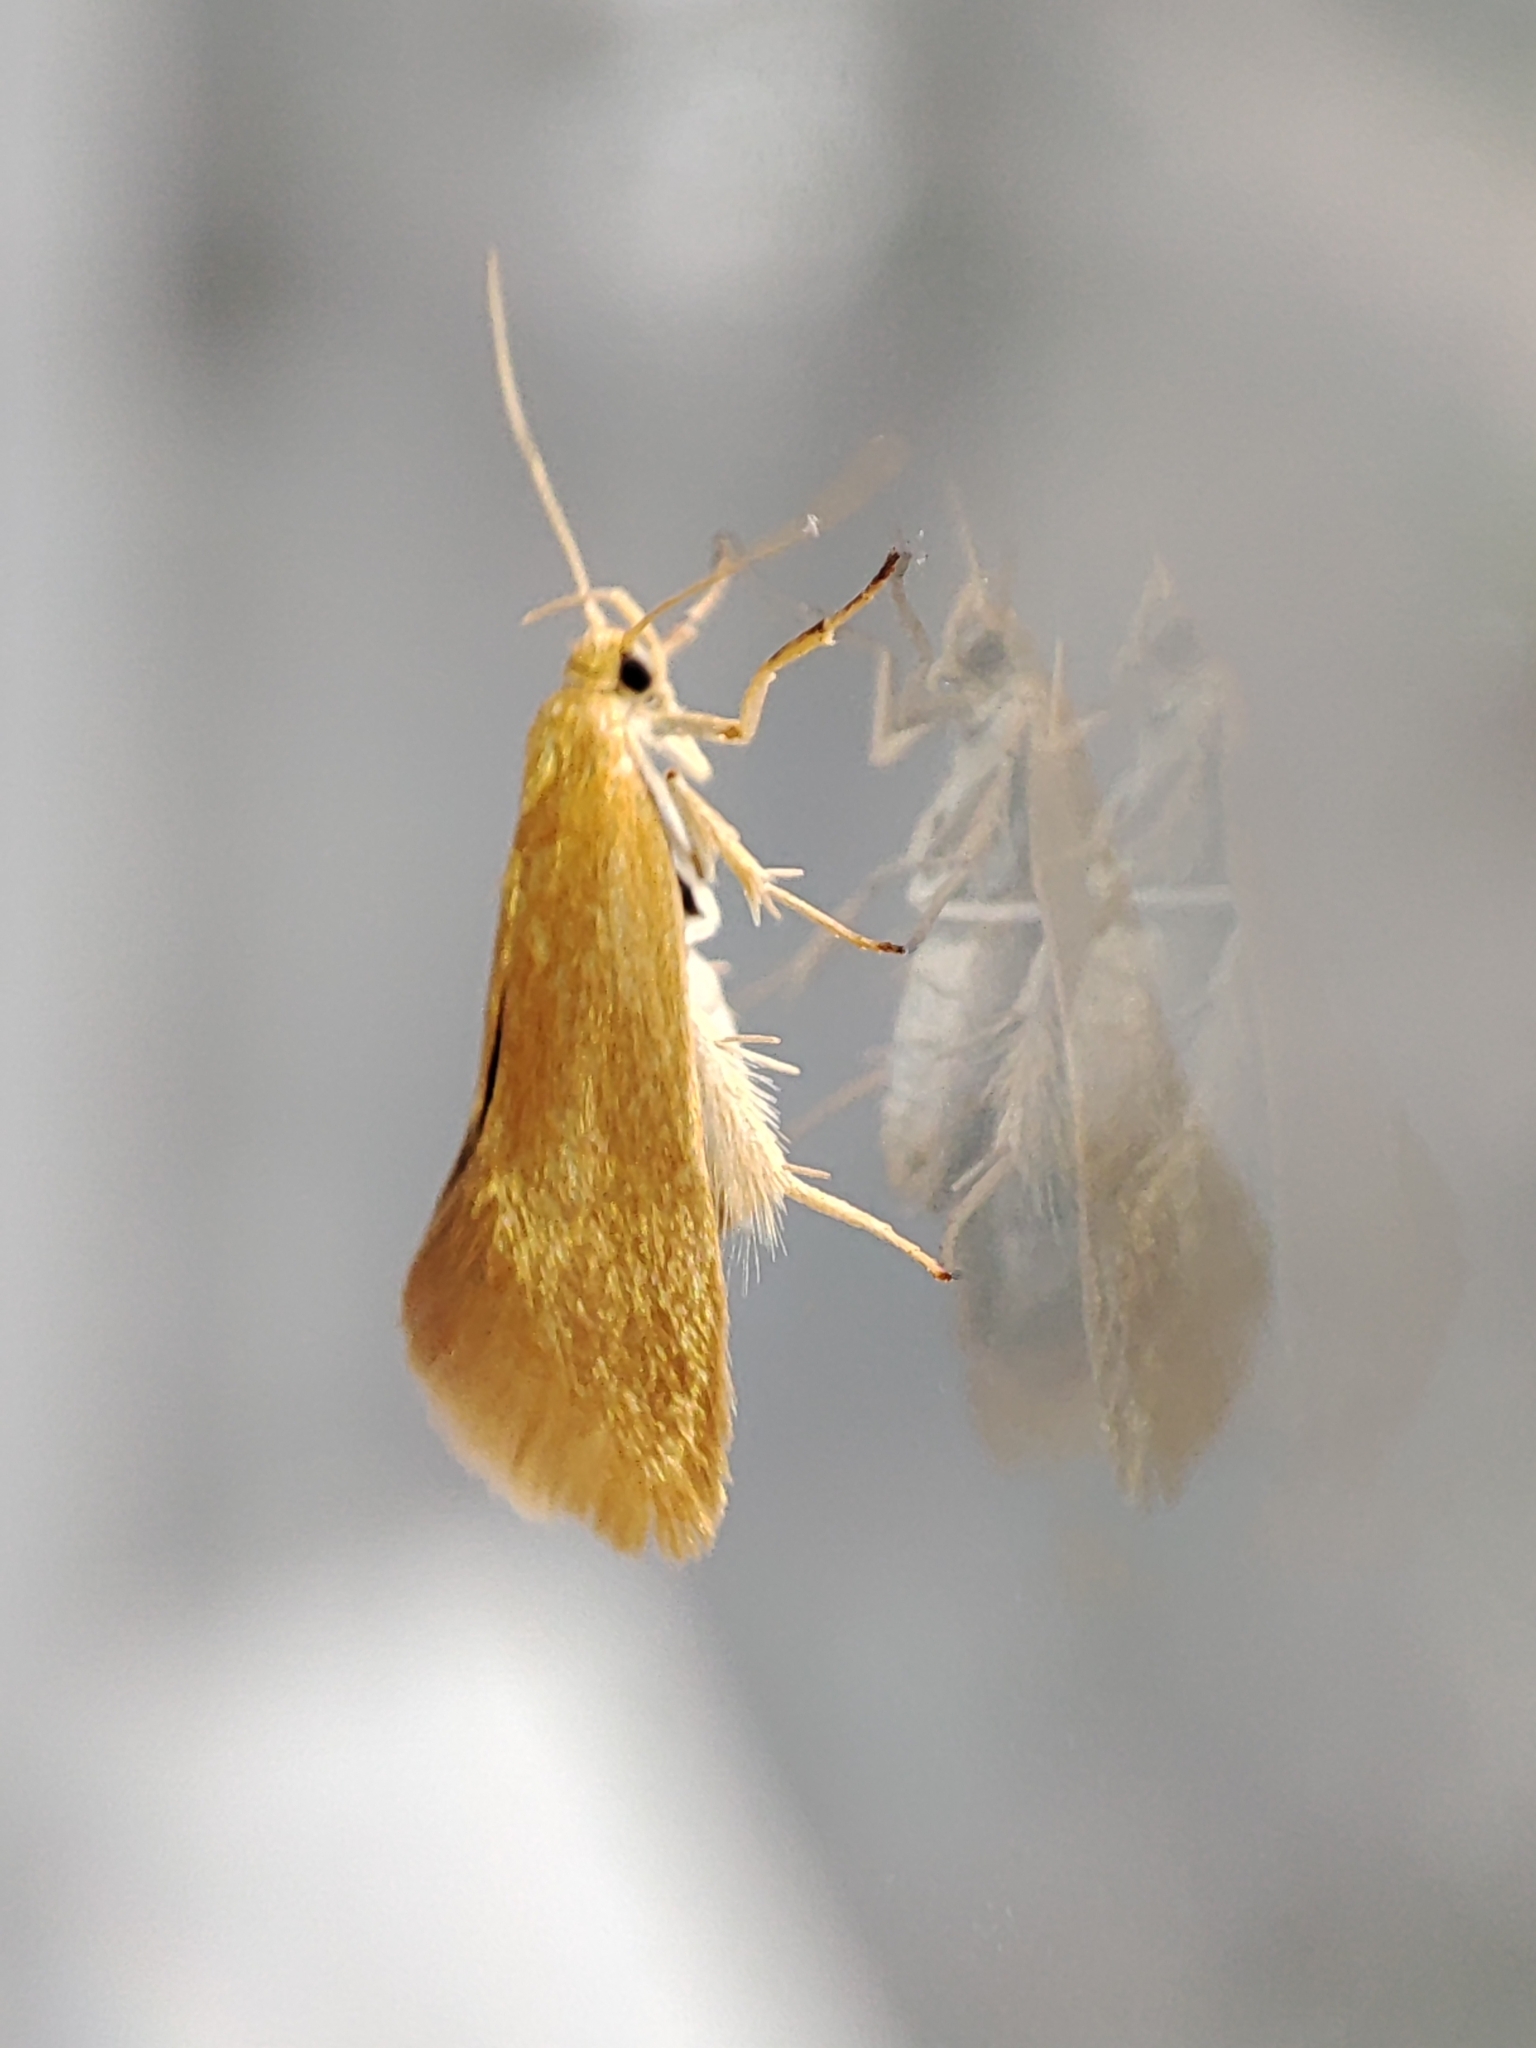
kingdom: Animalia
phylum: Arthropoda
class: Insecta
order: Lepidoptera
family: Oecophoridae
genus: Borkhausenia
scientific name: Borkhausenia Crassa tinctella
